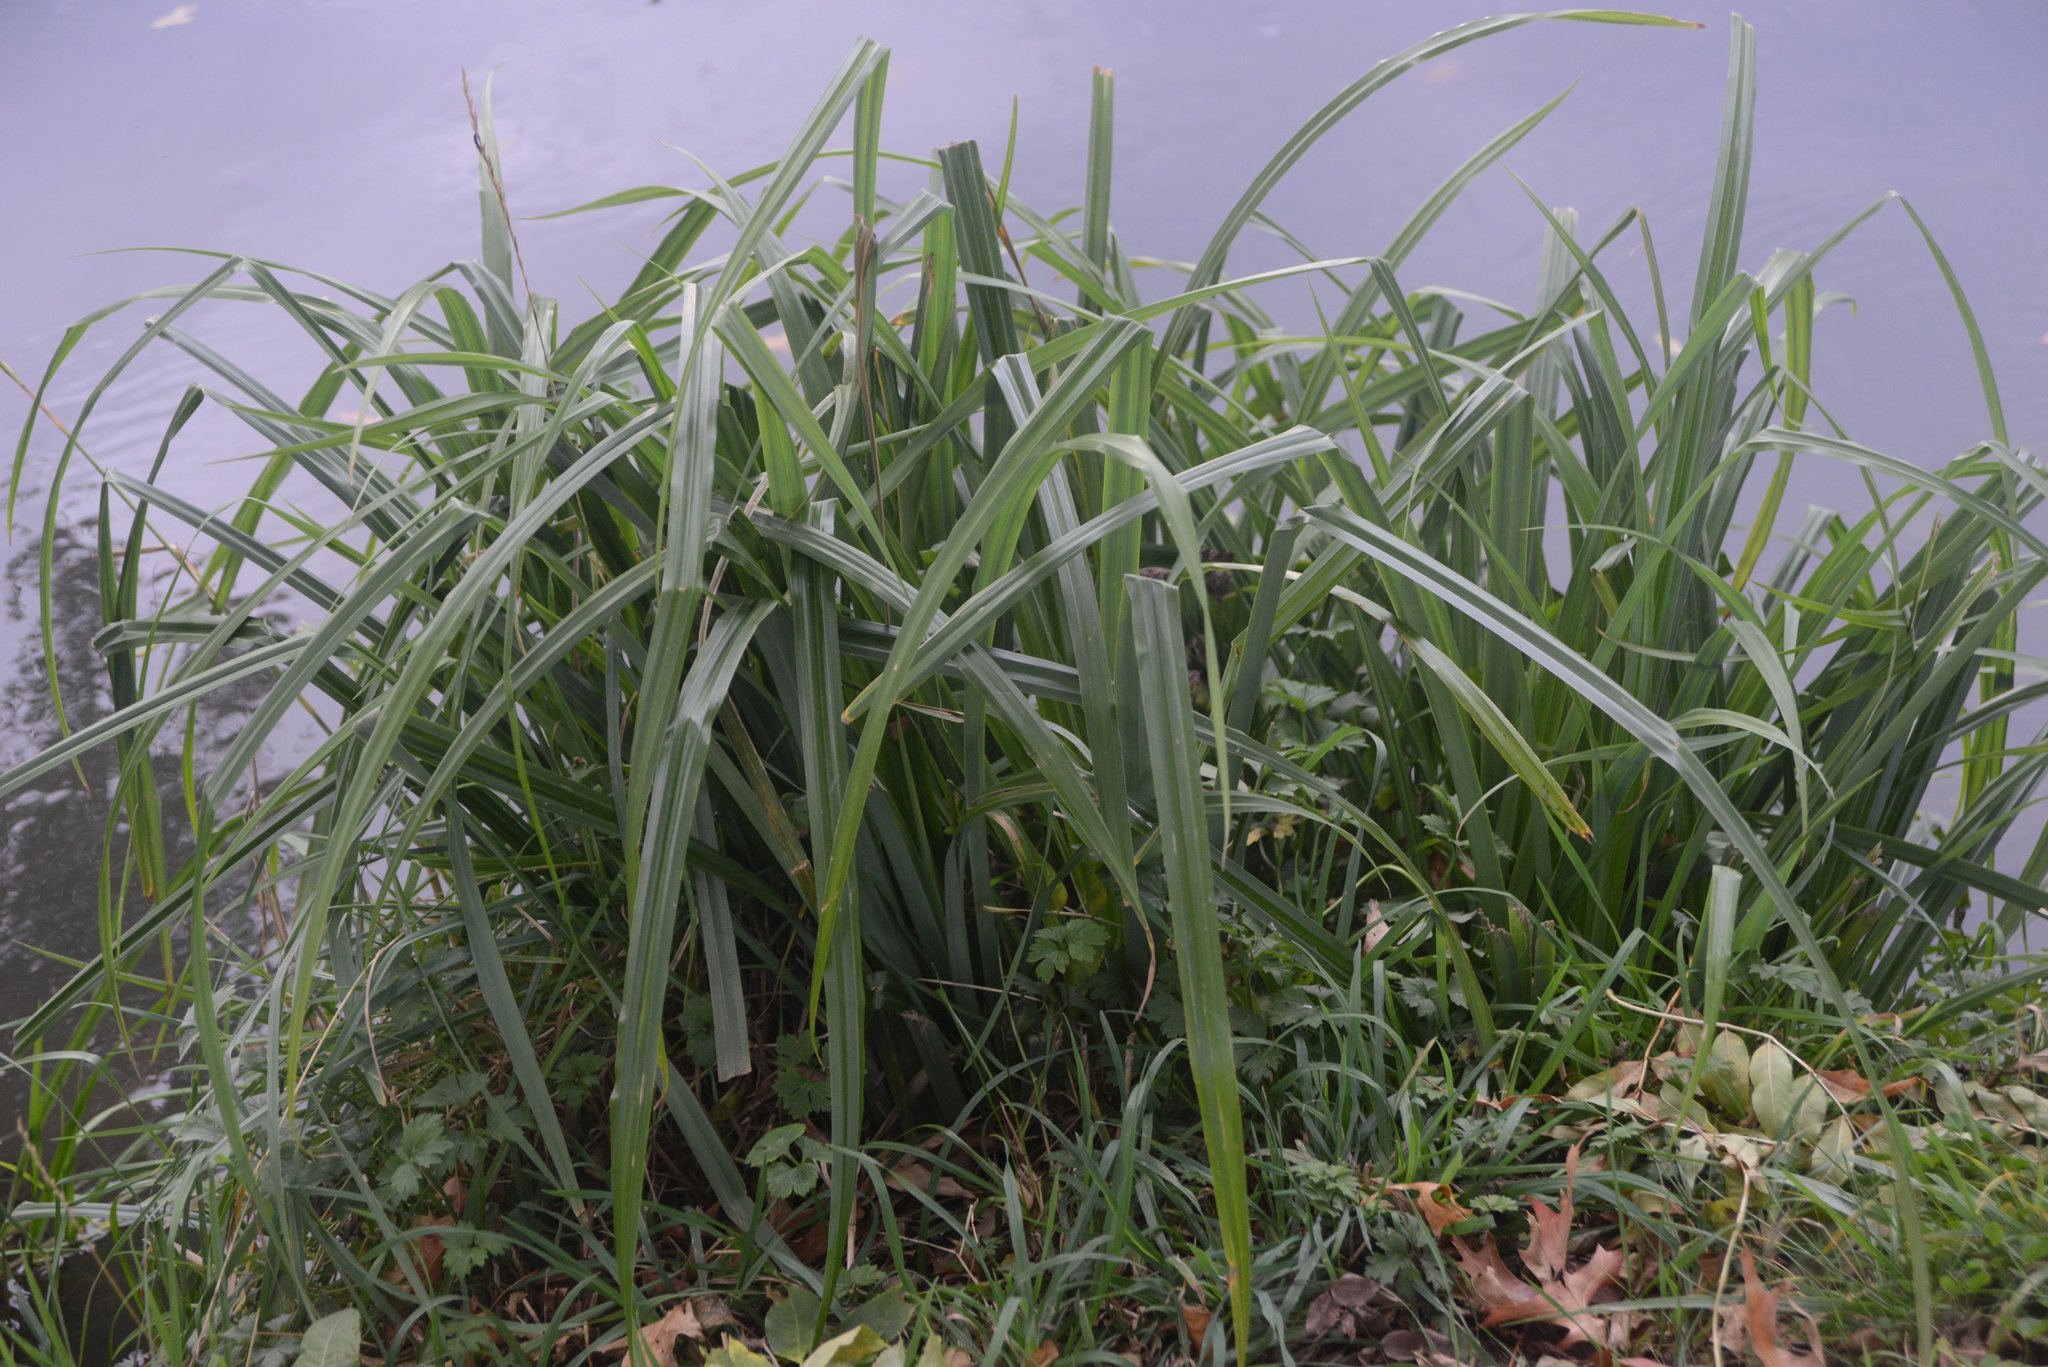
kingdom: Plantae
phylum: Tracheophyta
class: Liliopsida
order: Poales
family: Cyperaceae
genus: Carex
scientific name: Carex pendula
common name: Pendulous sedge
